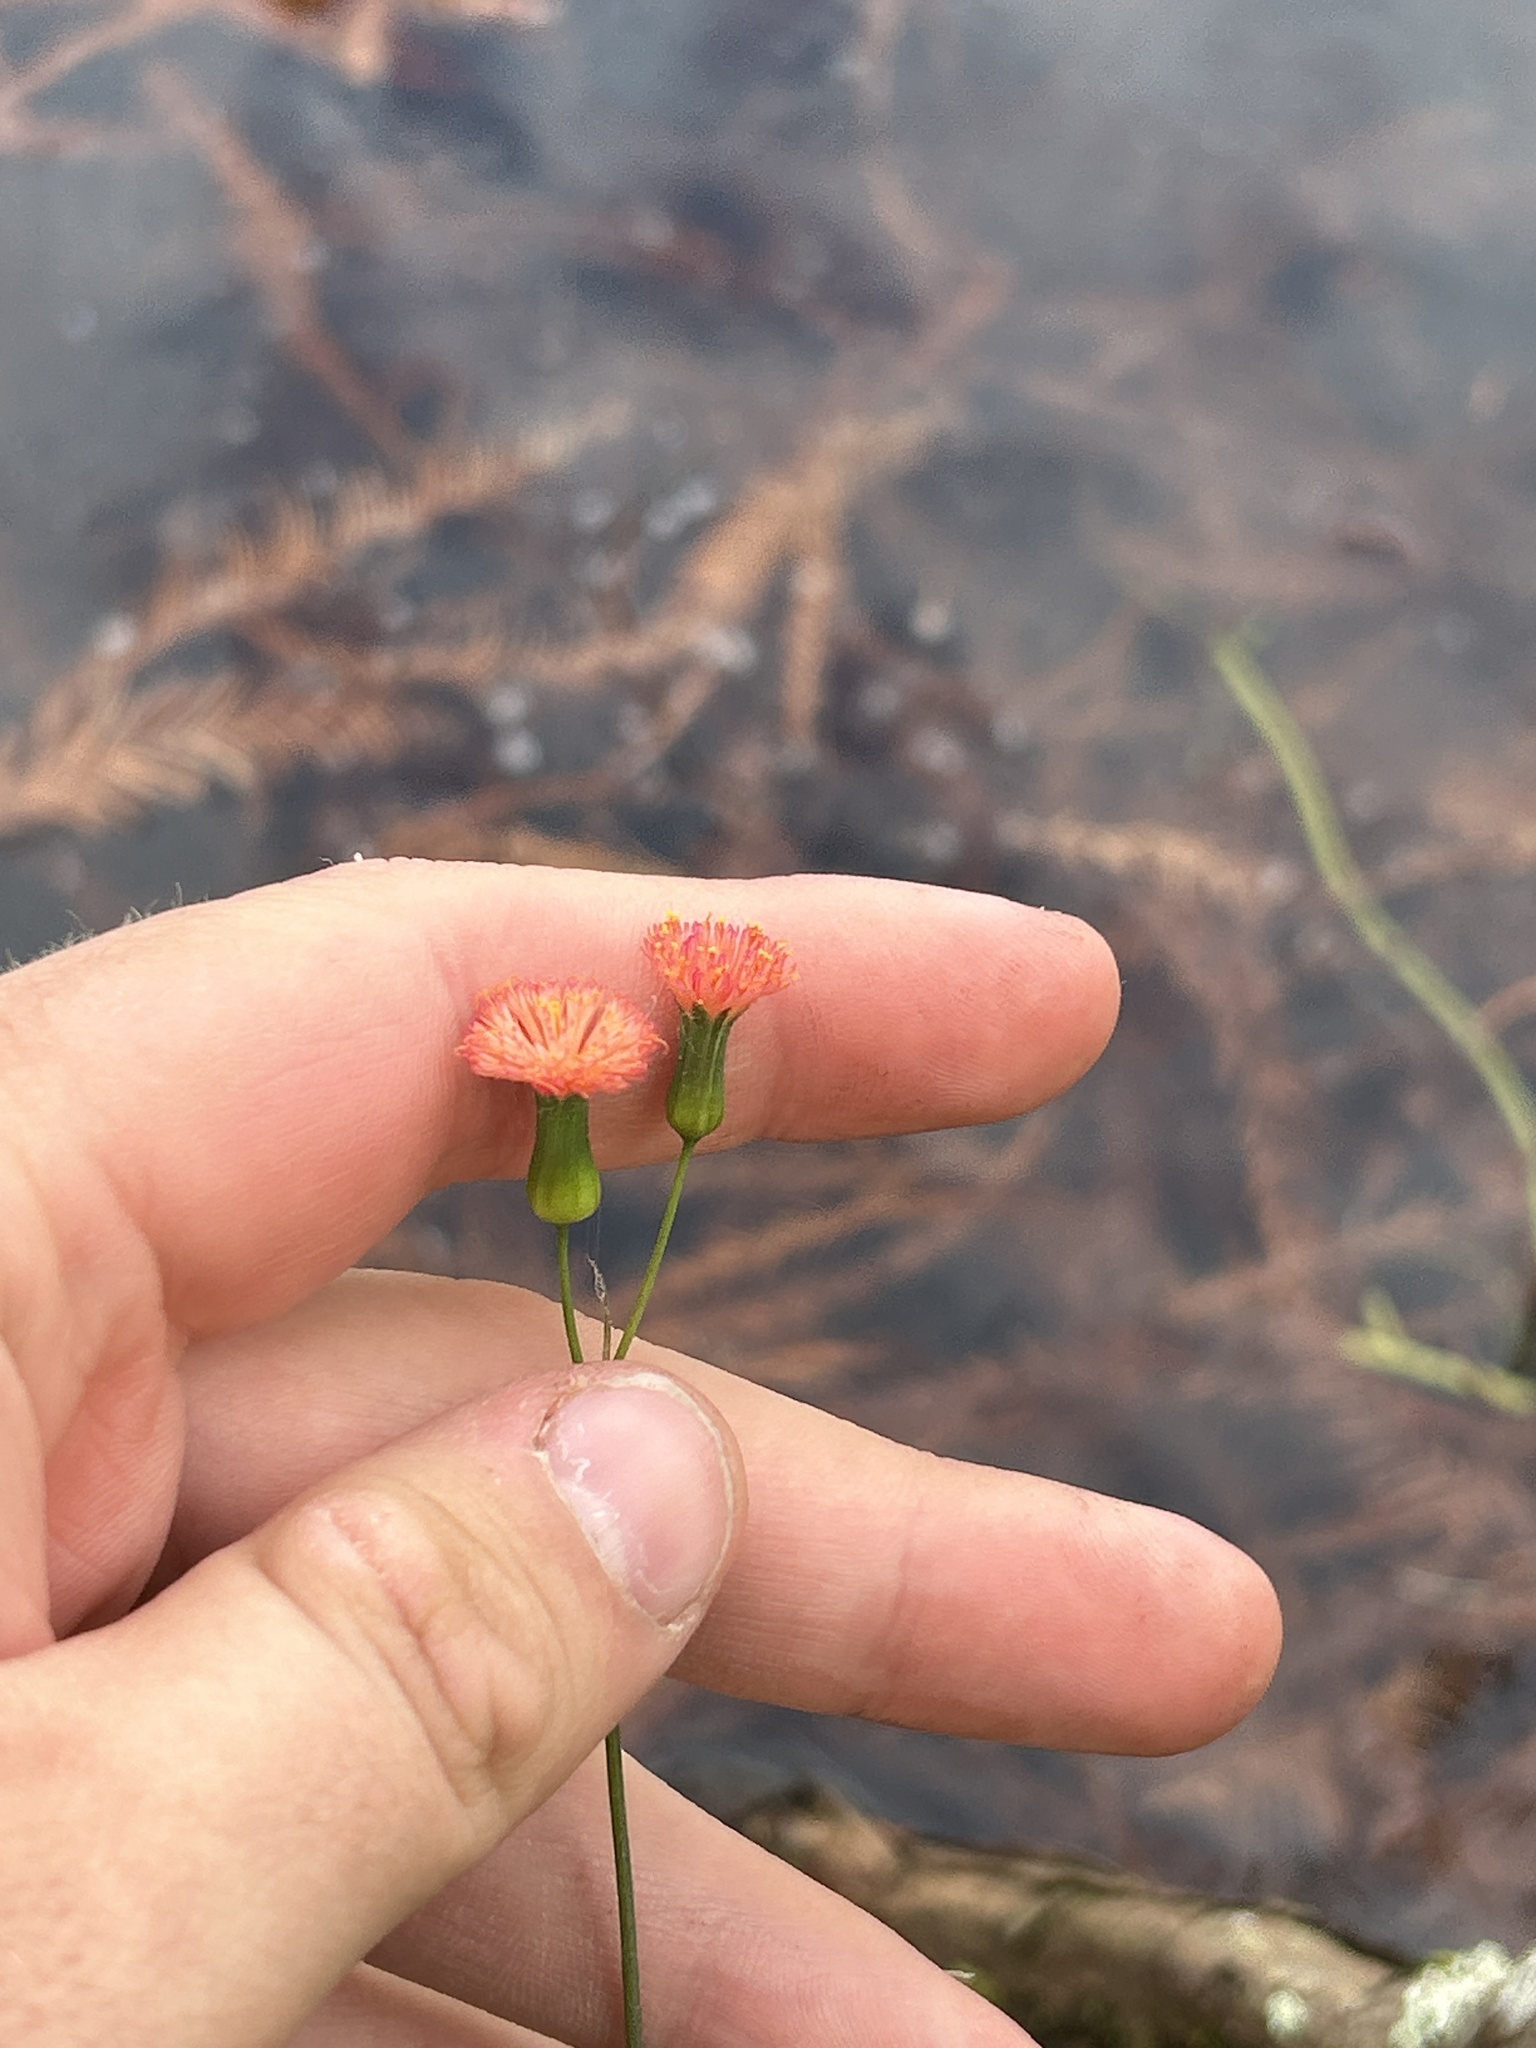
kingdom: Plantae
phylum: Tracheophyta
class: Magnoliopsida
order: Asterales
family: Asteraceae
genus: Emilia
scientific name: Emilia fosbergii
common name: Florida tasselflower
